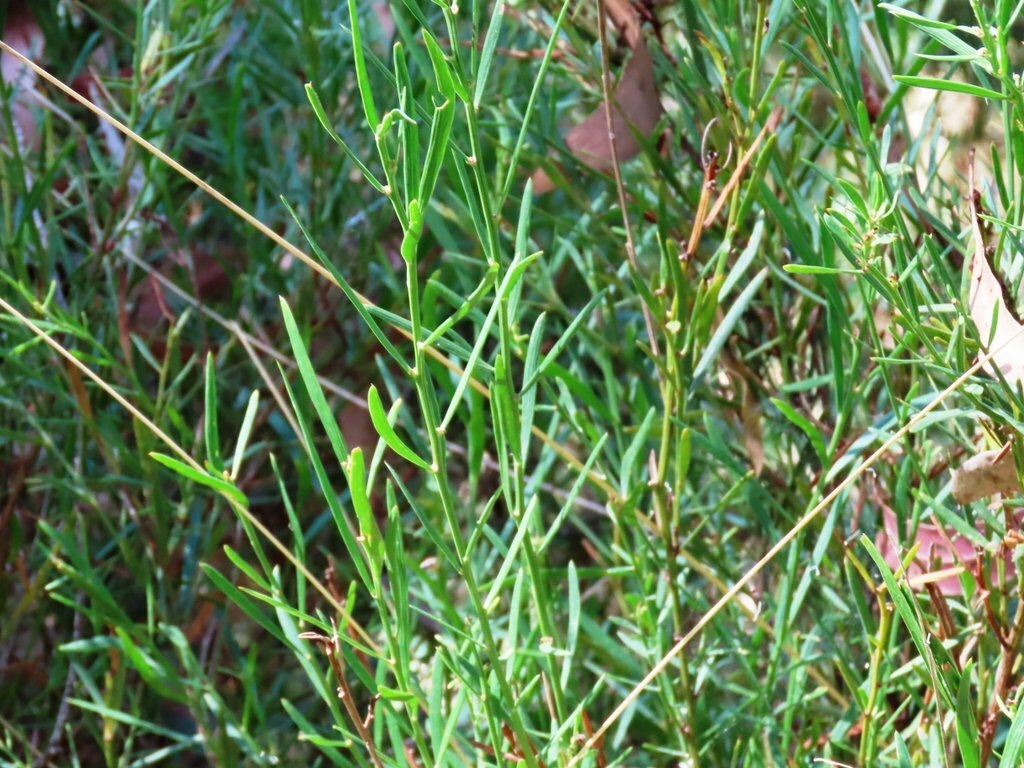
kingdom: Plantae
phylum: Tracheophyta
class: Magnoliopsida
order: Fabales
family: Fabaceae
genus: Daviesia
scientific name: Daviesia leptophylla
